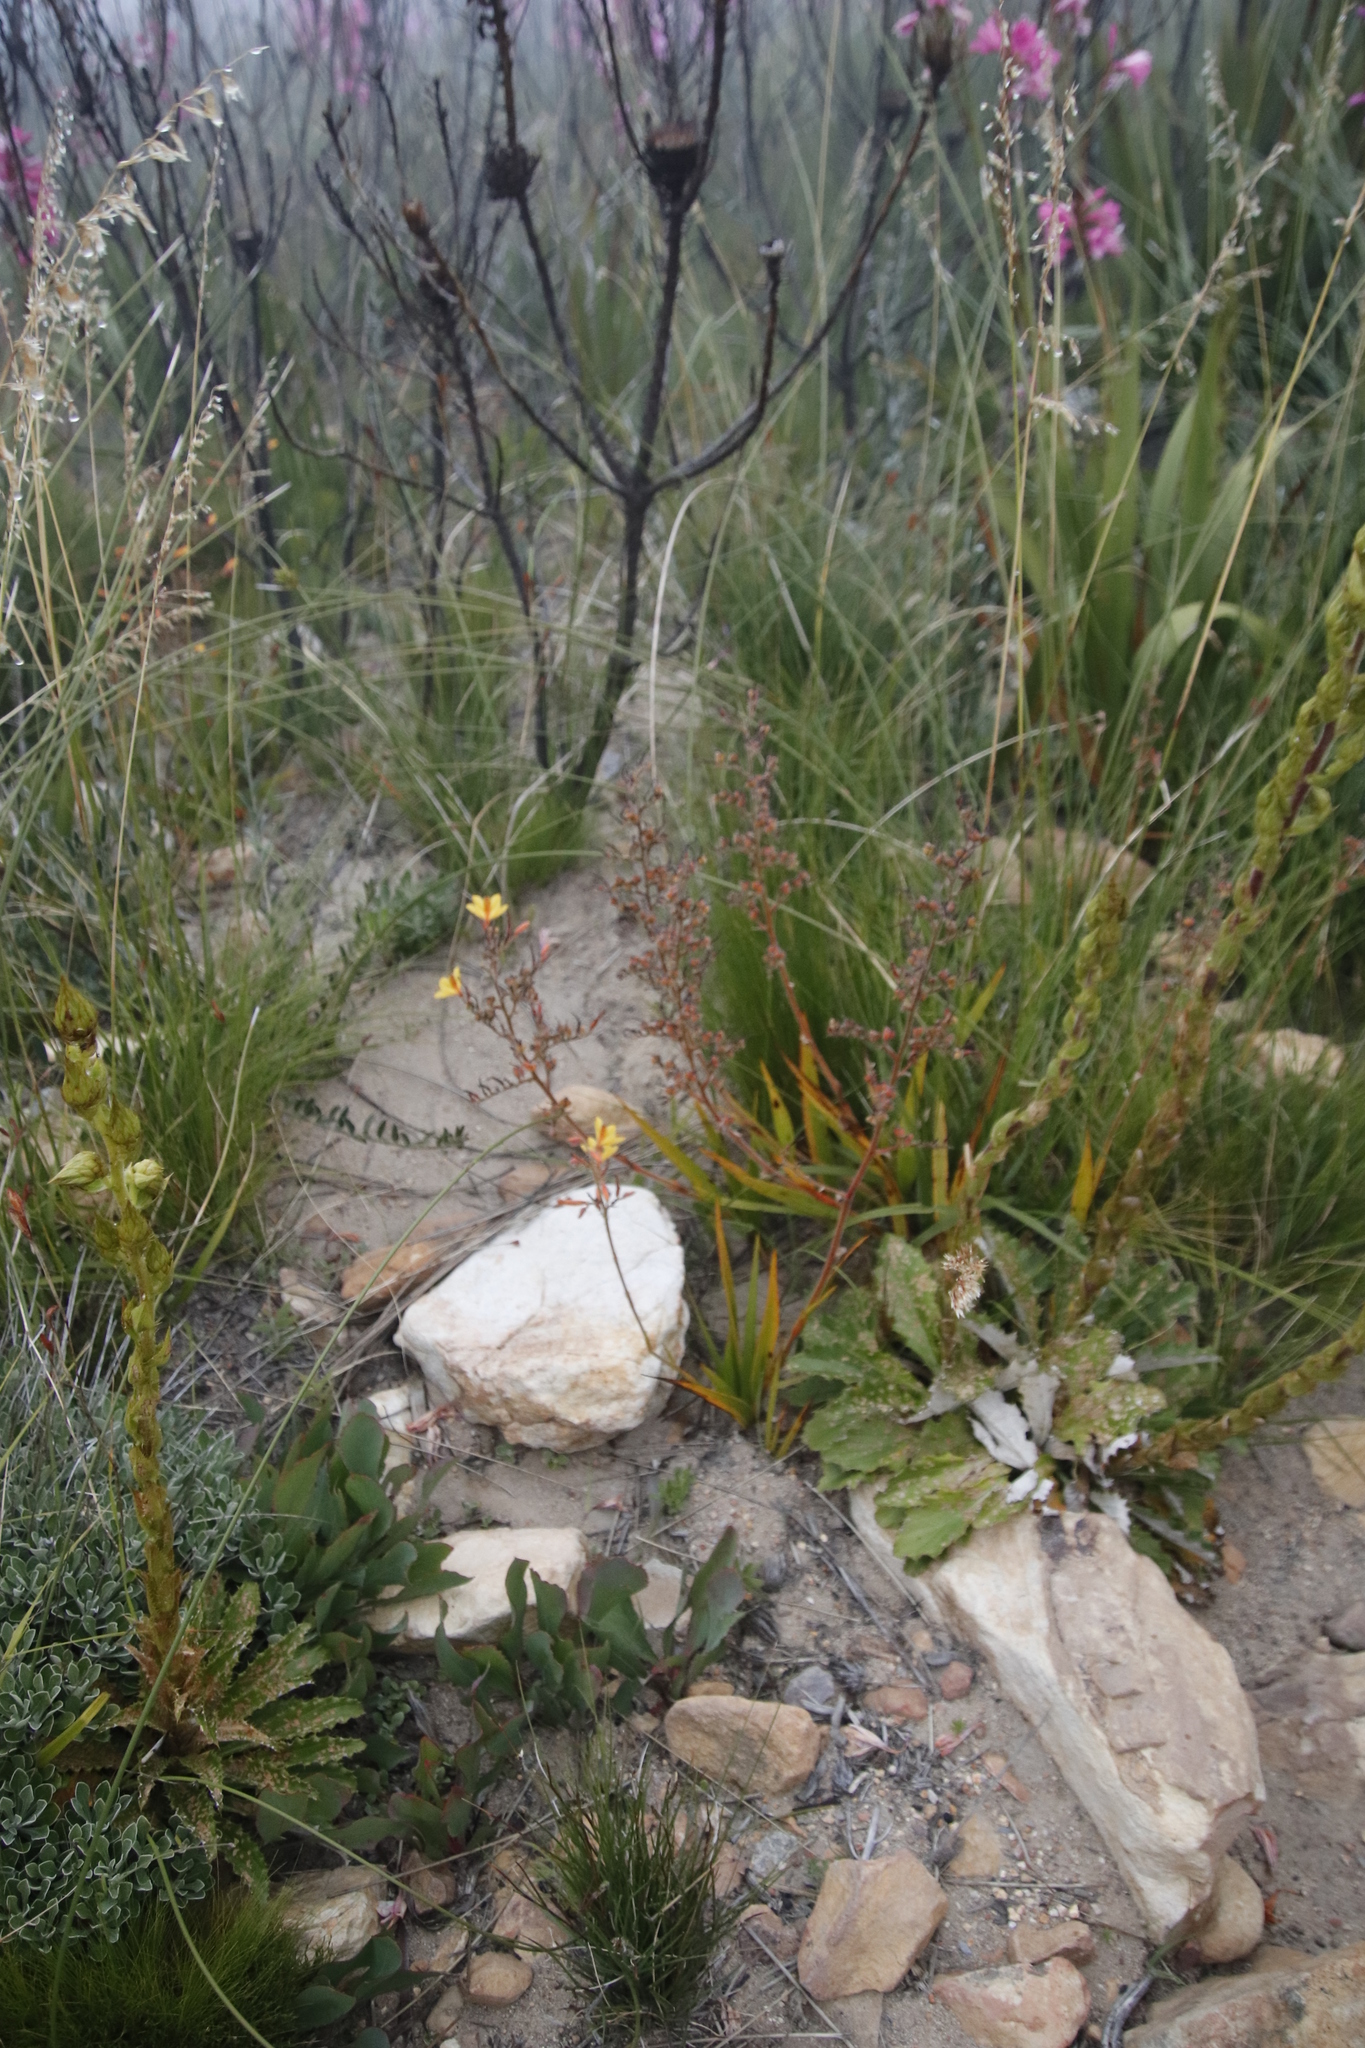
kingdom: Plantae
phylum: Tracheophyta
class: Liliopsida
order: Commelinales
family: Haemodoraceae
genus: Wachendorfia
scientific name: Wachendorfia paniculata
